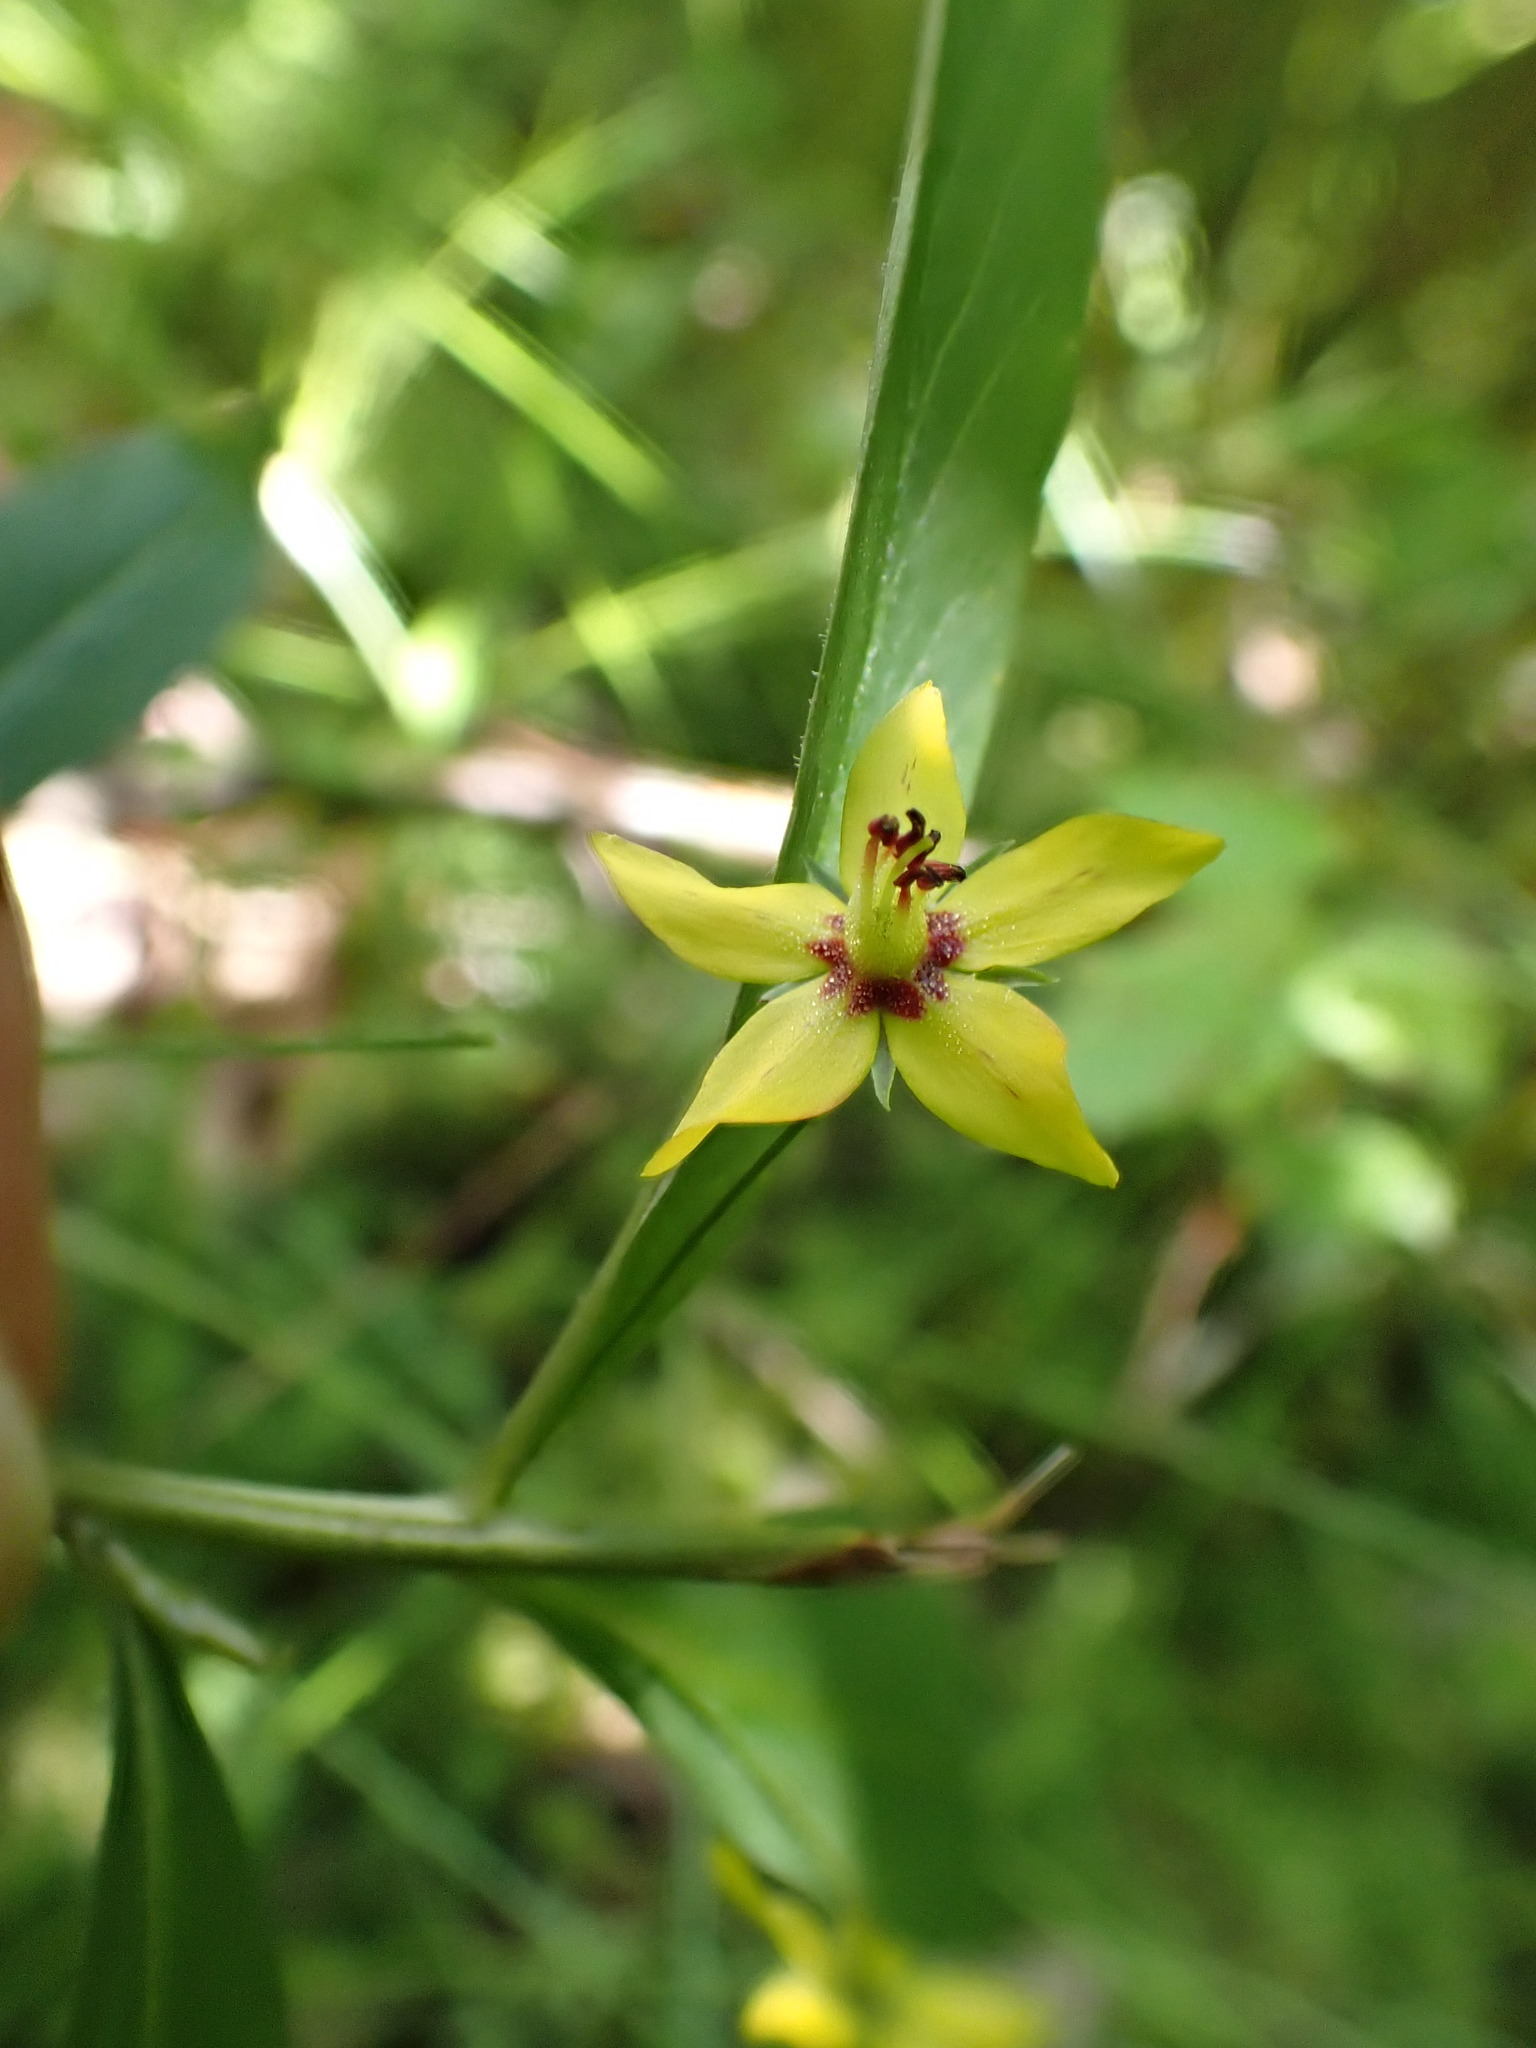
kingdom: Plantae
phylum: Tracheophyta
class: Magnoliopsida
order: Ericales
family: Primulaceae
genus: Lysimachia
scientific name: Lysimachia quadrifolia
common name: Whorled loosestrife
